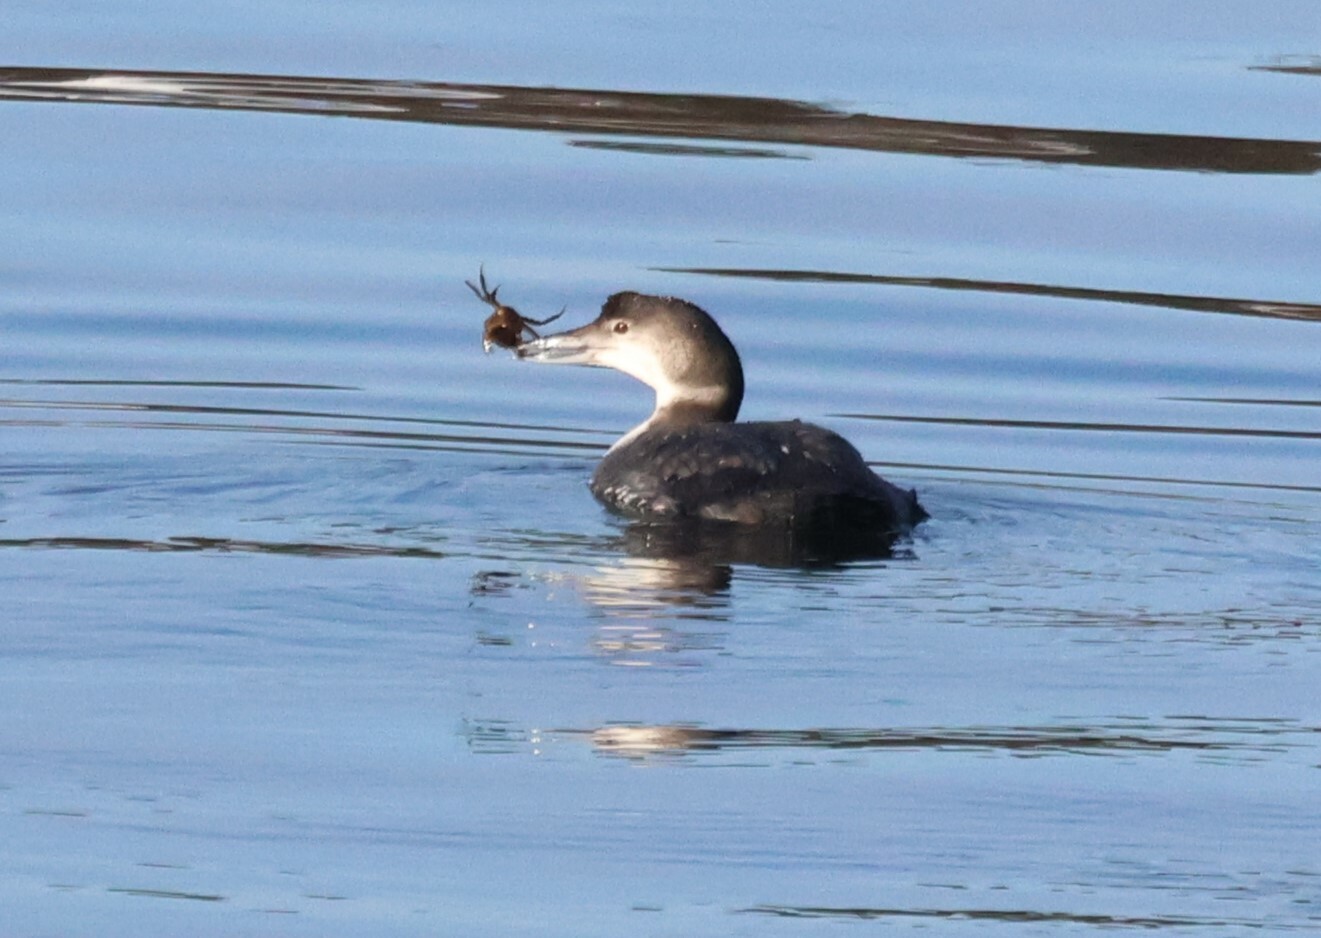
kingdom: Animalia
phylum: Chordata
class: Aves
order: Gaviiformes
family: Gaviidae
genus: Gavia
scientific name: Gavia immer
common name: Common loon
